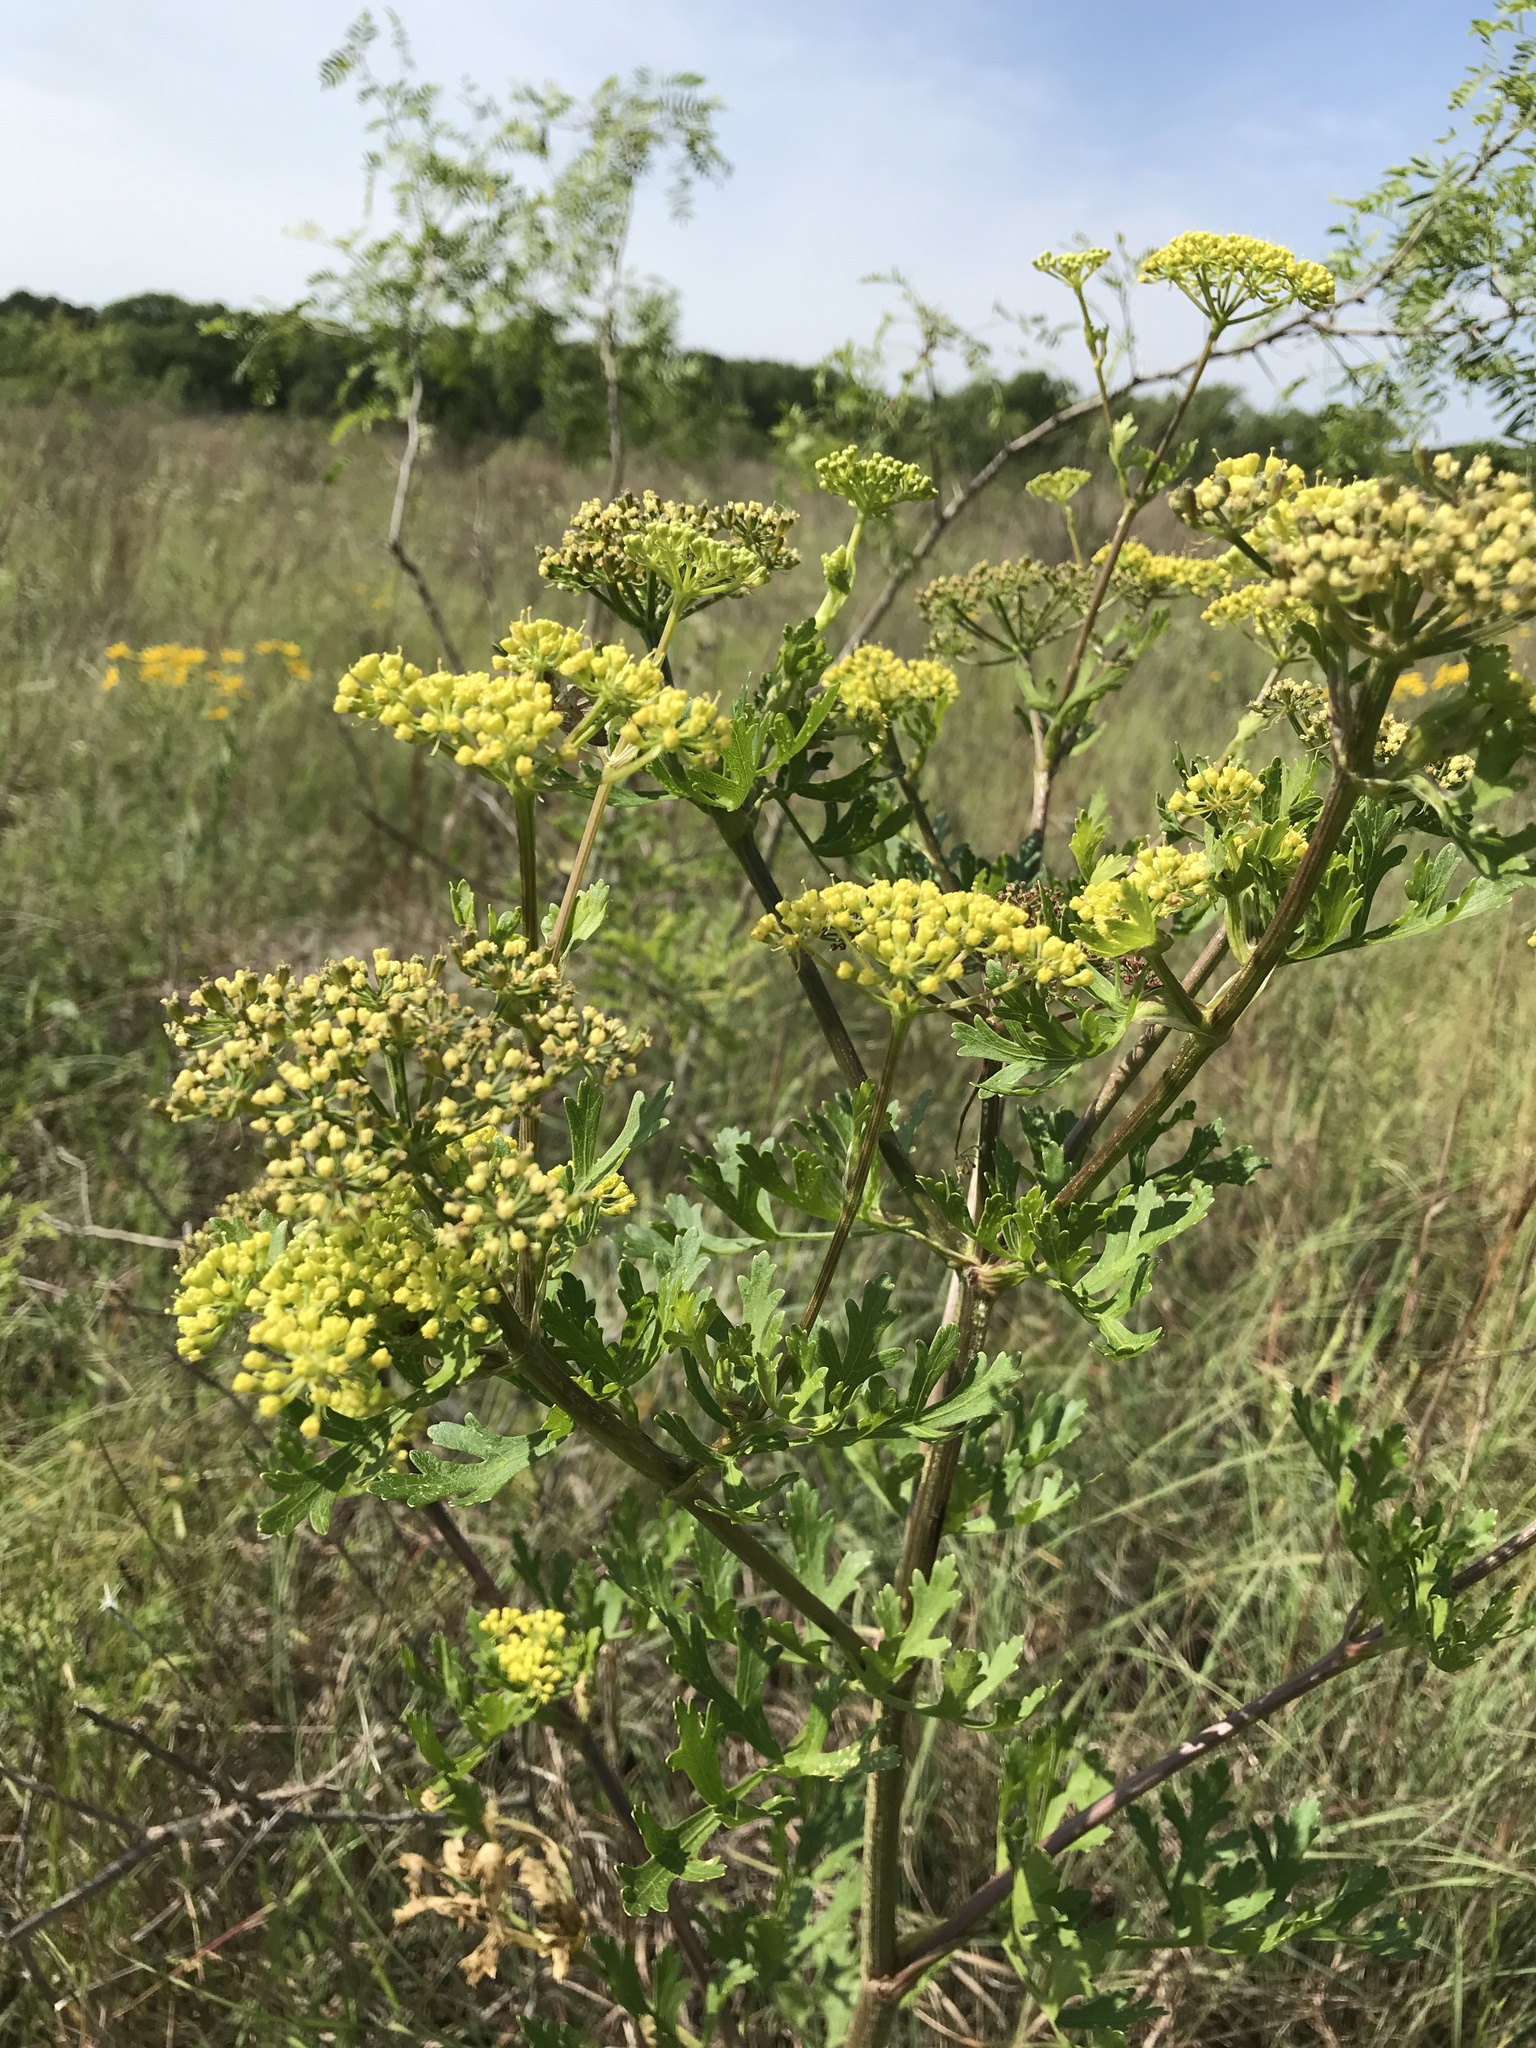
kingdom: Plantae
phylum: Tracheophyta
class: Magnoliopsida
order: Apiales
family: Apiaceae
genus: Polytaenia
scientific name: Polytaenia texana
